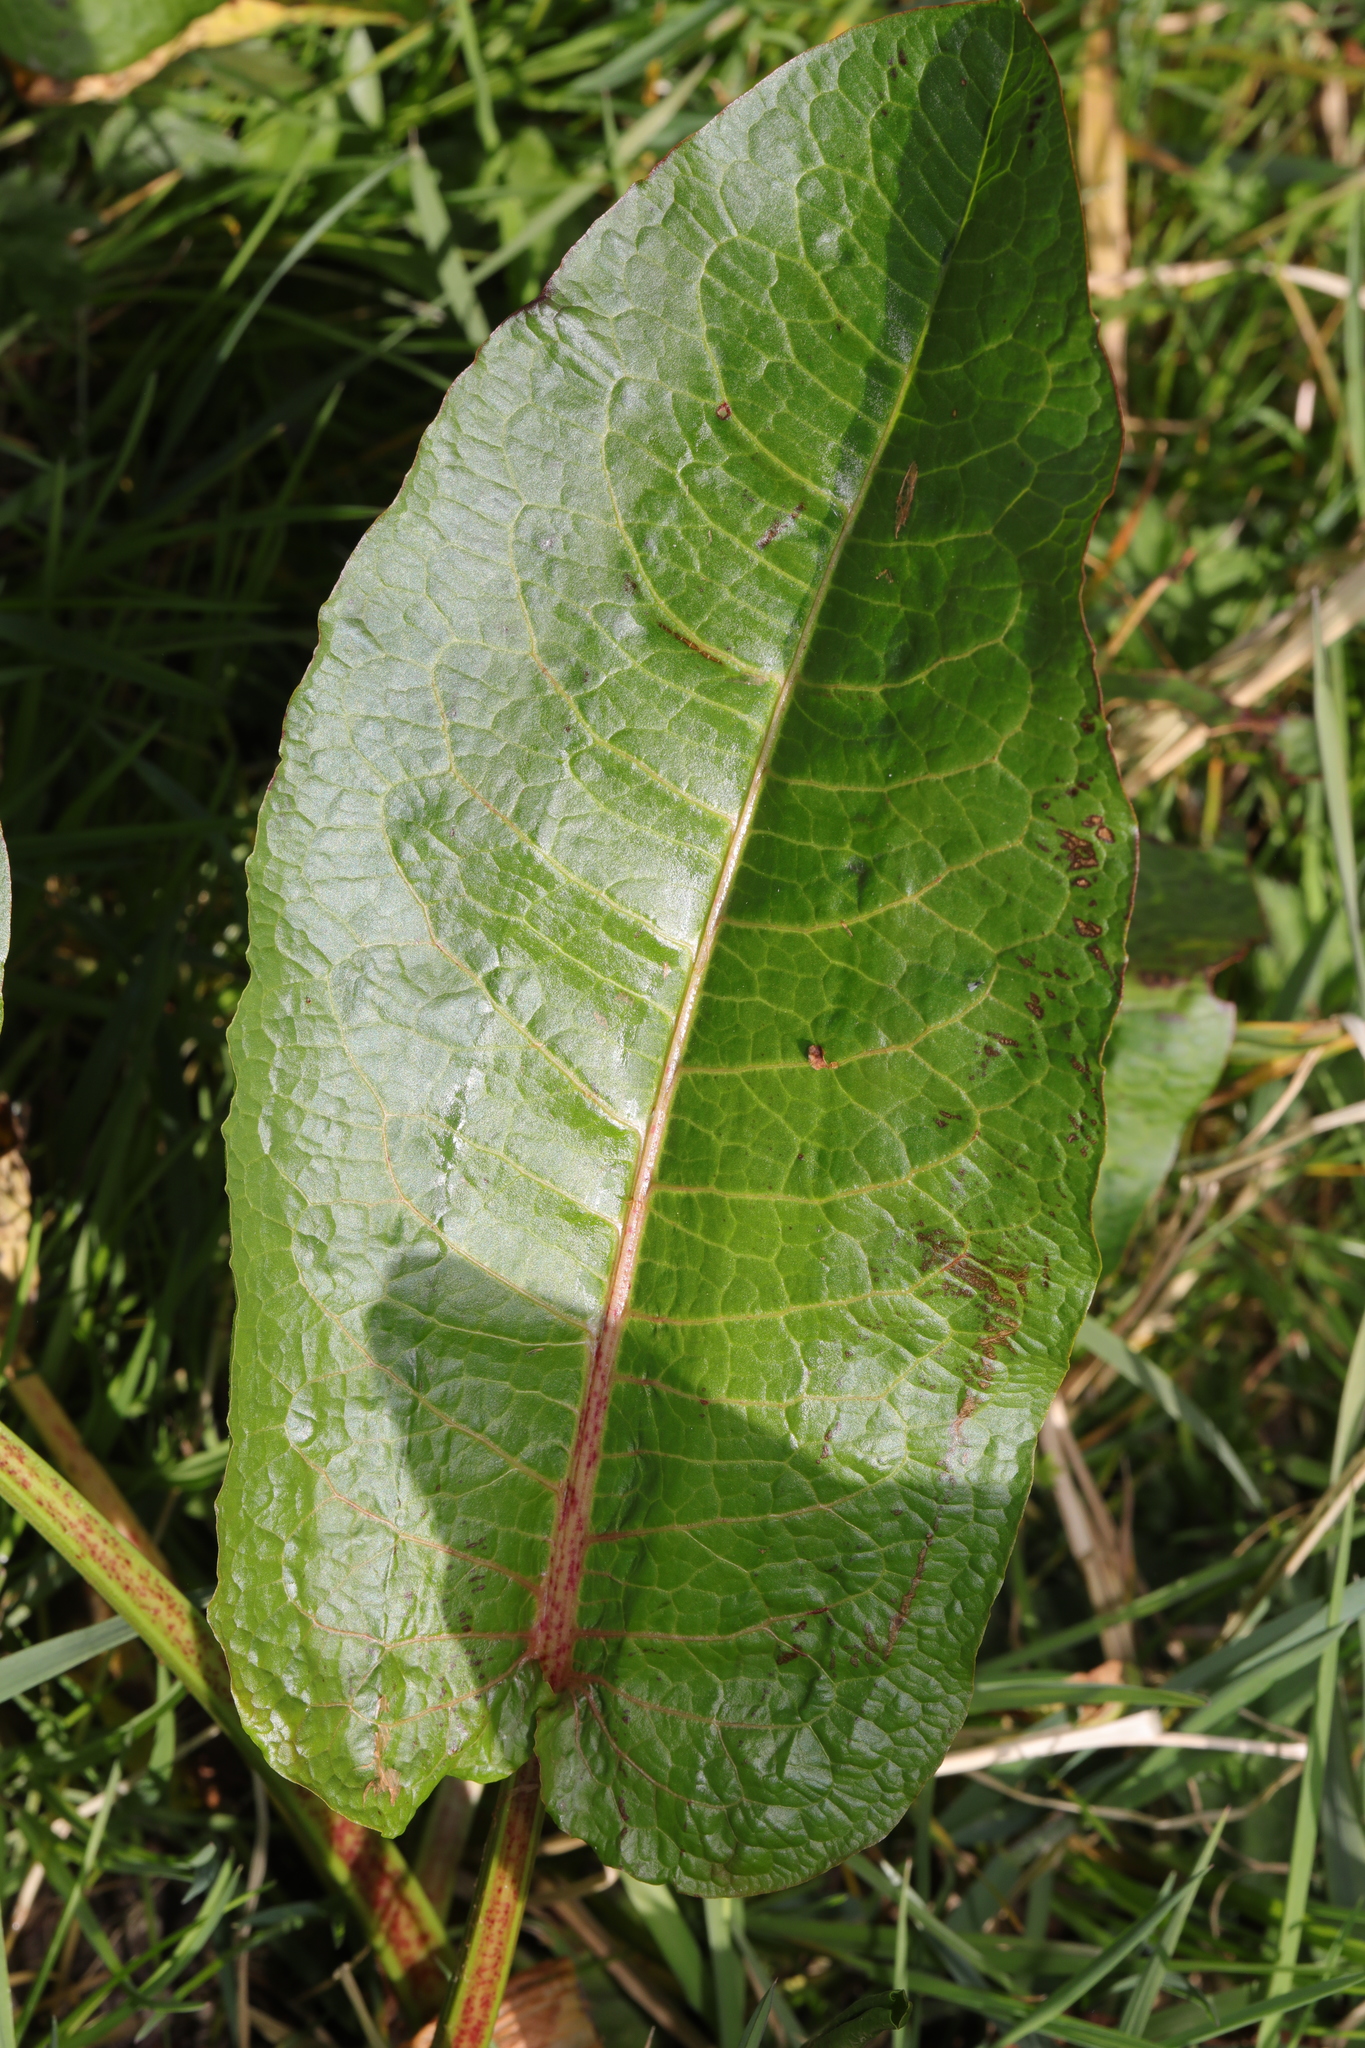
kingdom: Plantae
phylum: Tracheophyta
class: Magnoliopsida
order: Caryophyllales
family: Polygonaceae
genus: Rumex
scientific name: Rumex obtusifolius
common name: Bitter dock
